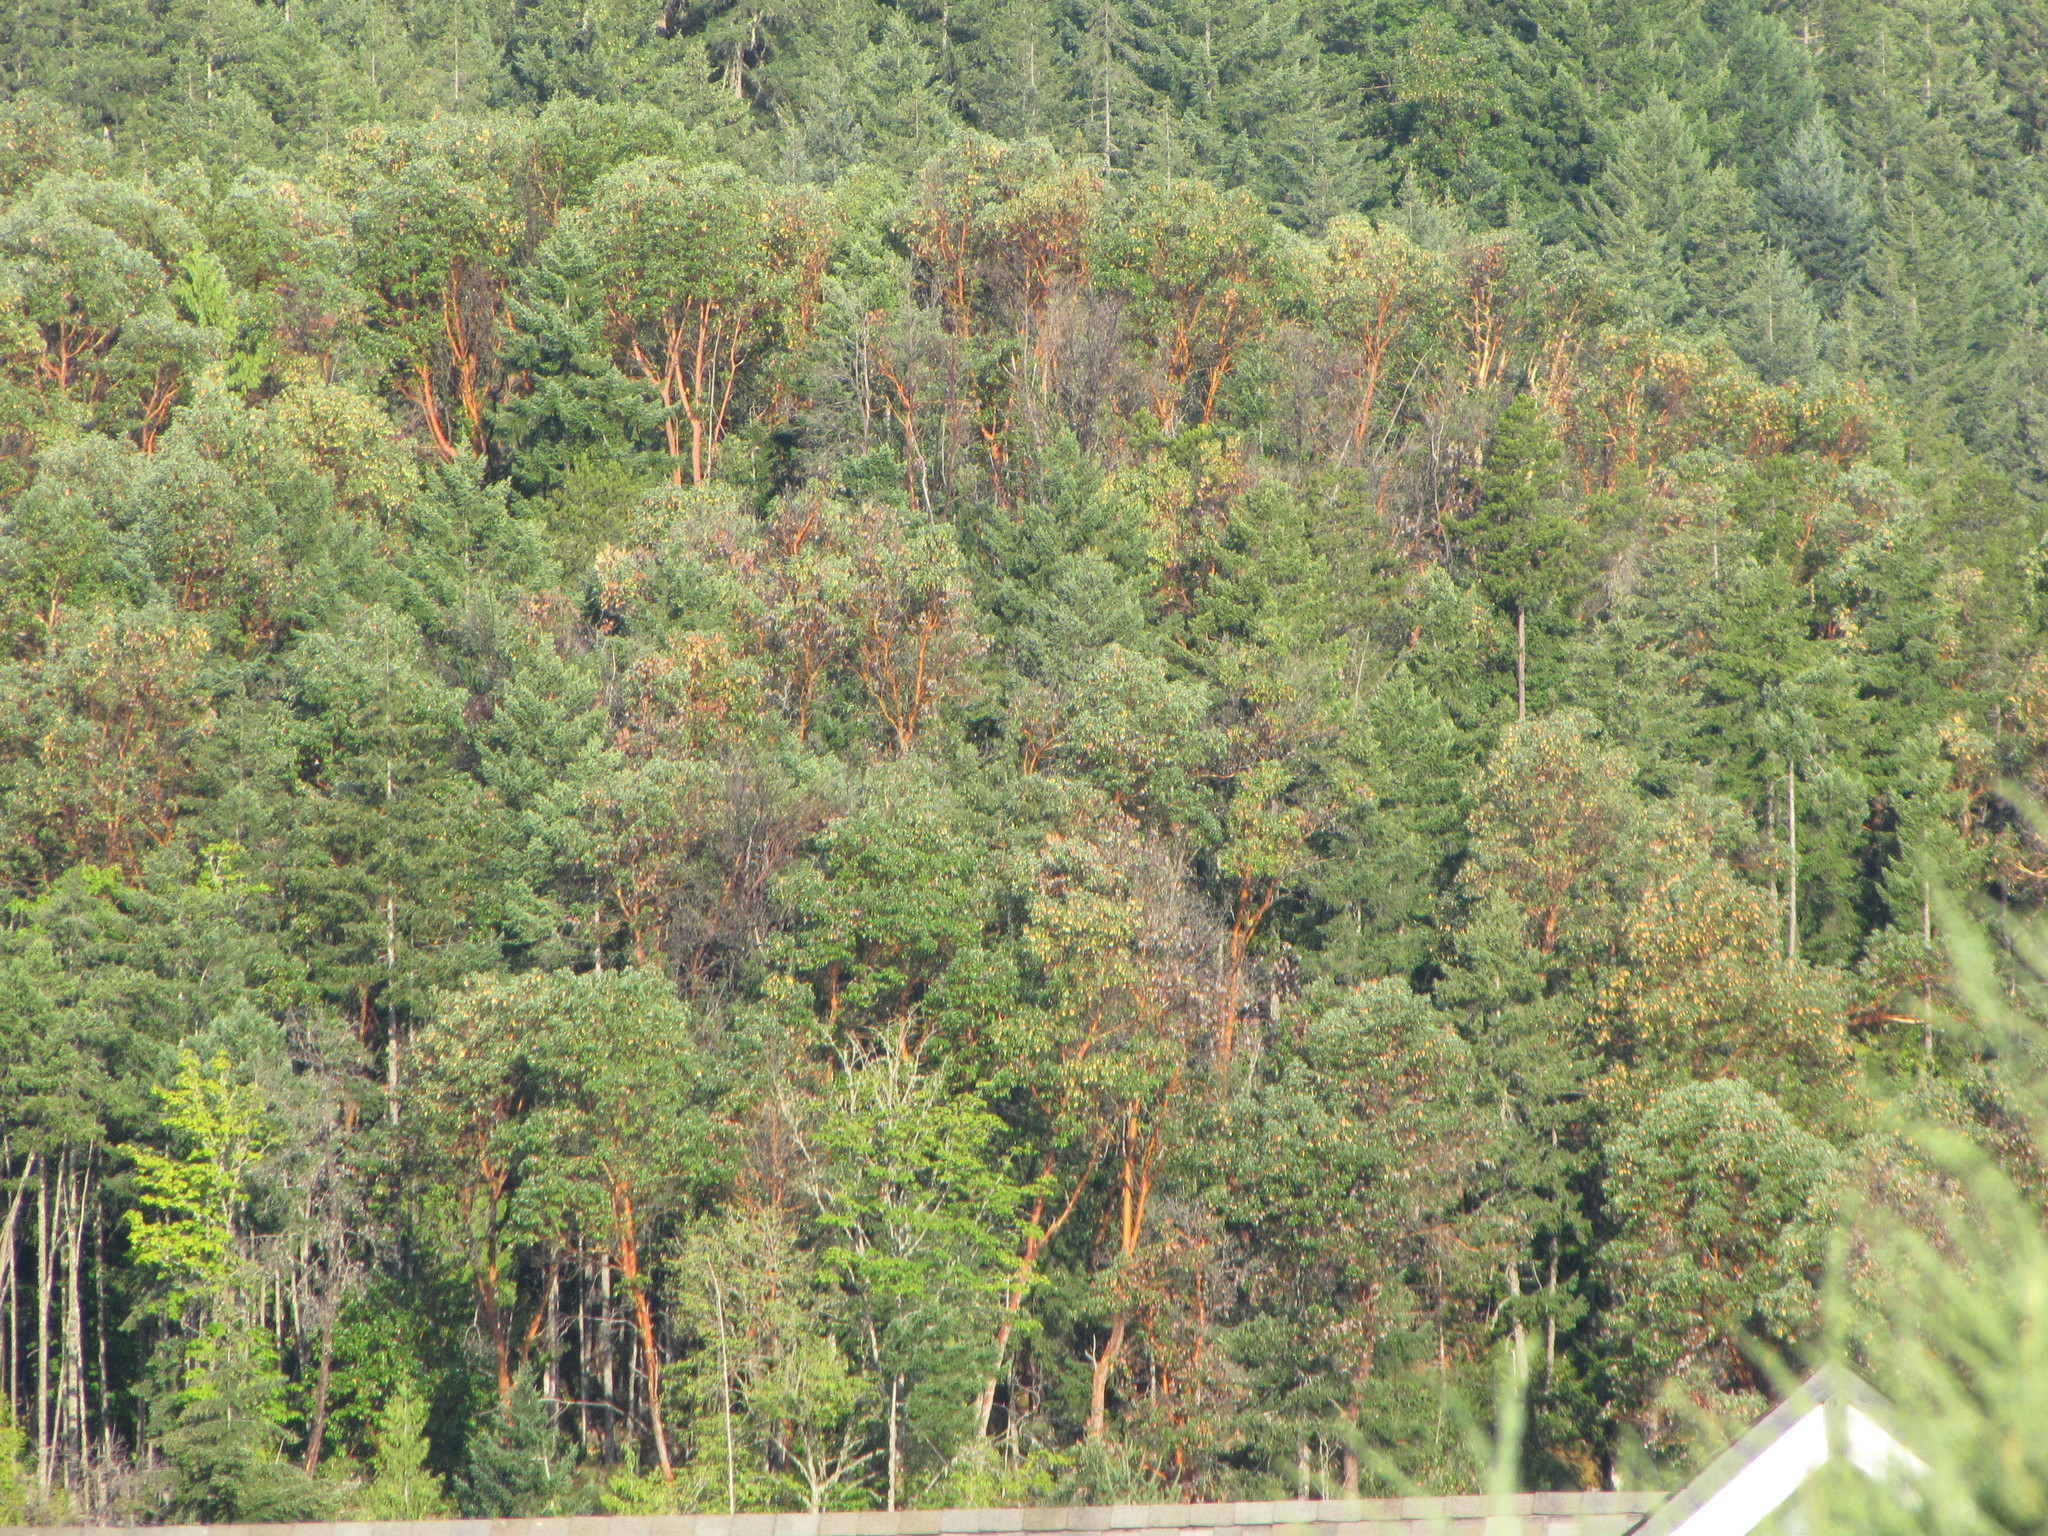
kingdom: Plantae
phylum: Tracheophyta
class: Magnoliopsida
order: Ericales
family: Ericaceae
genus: Arbutus
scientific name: Arbutus menziesii
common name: Pacific madrone
